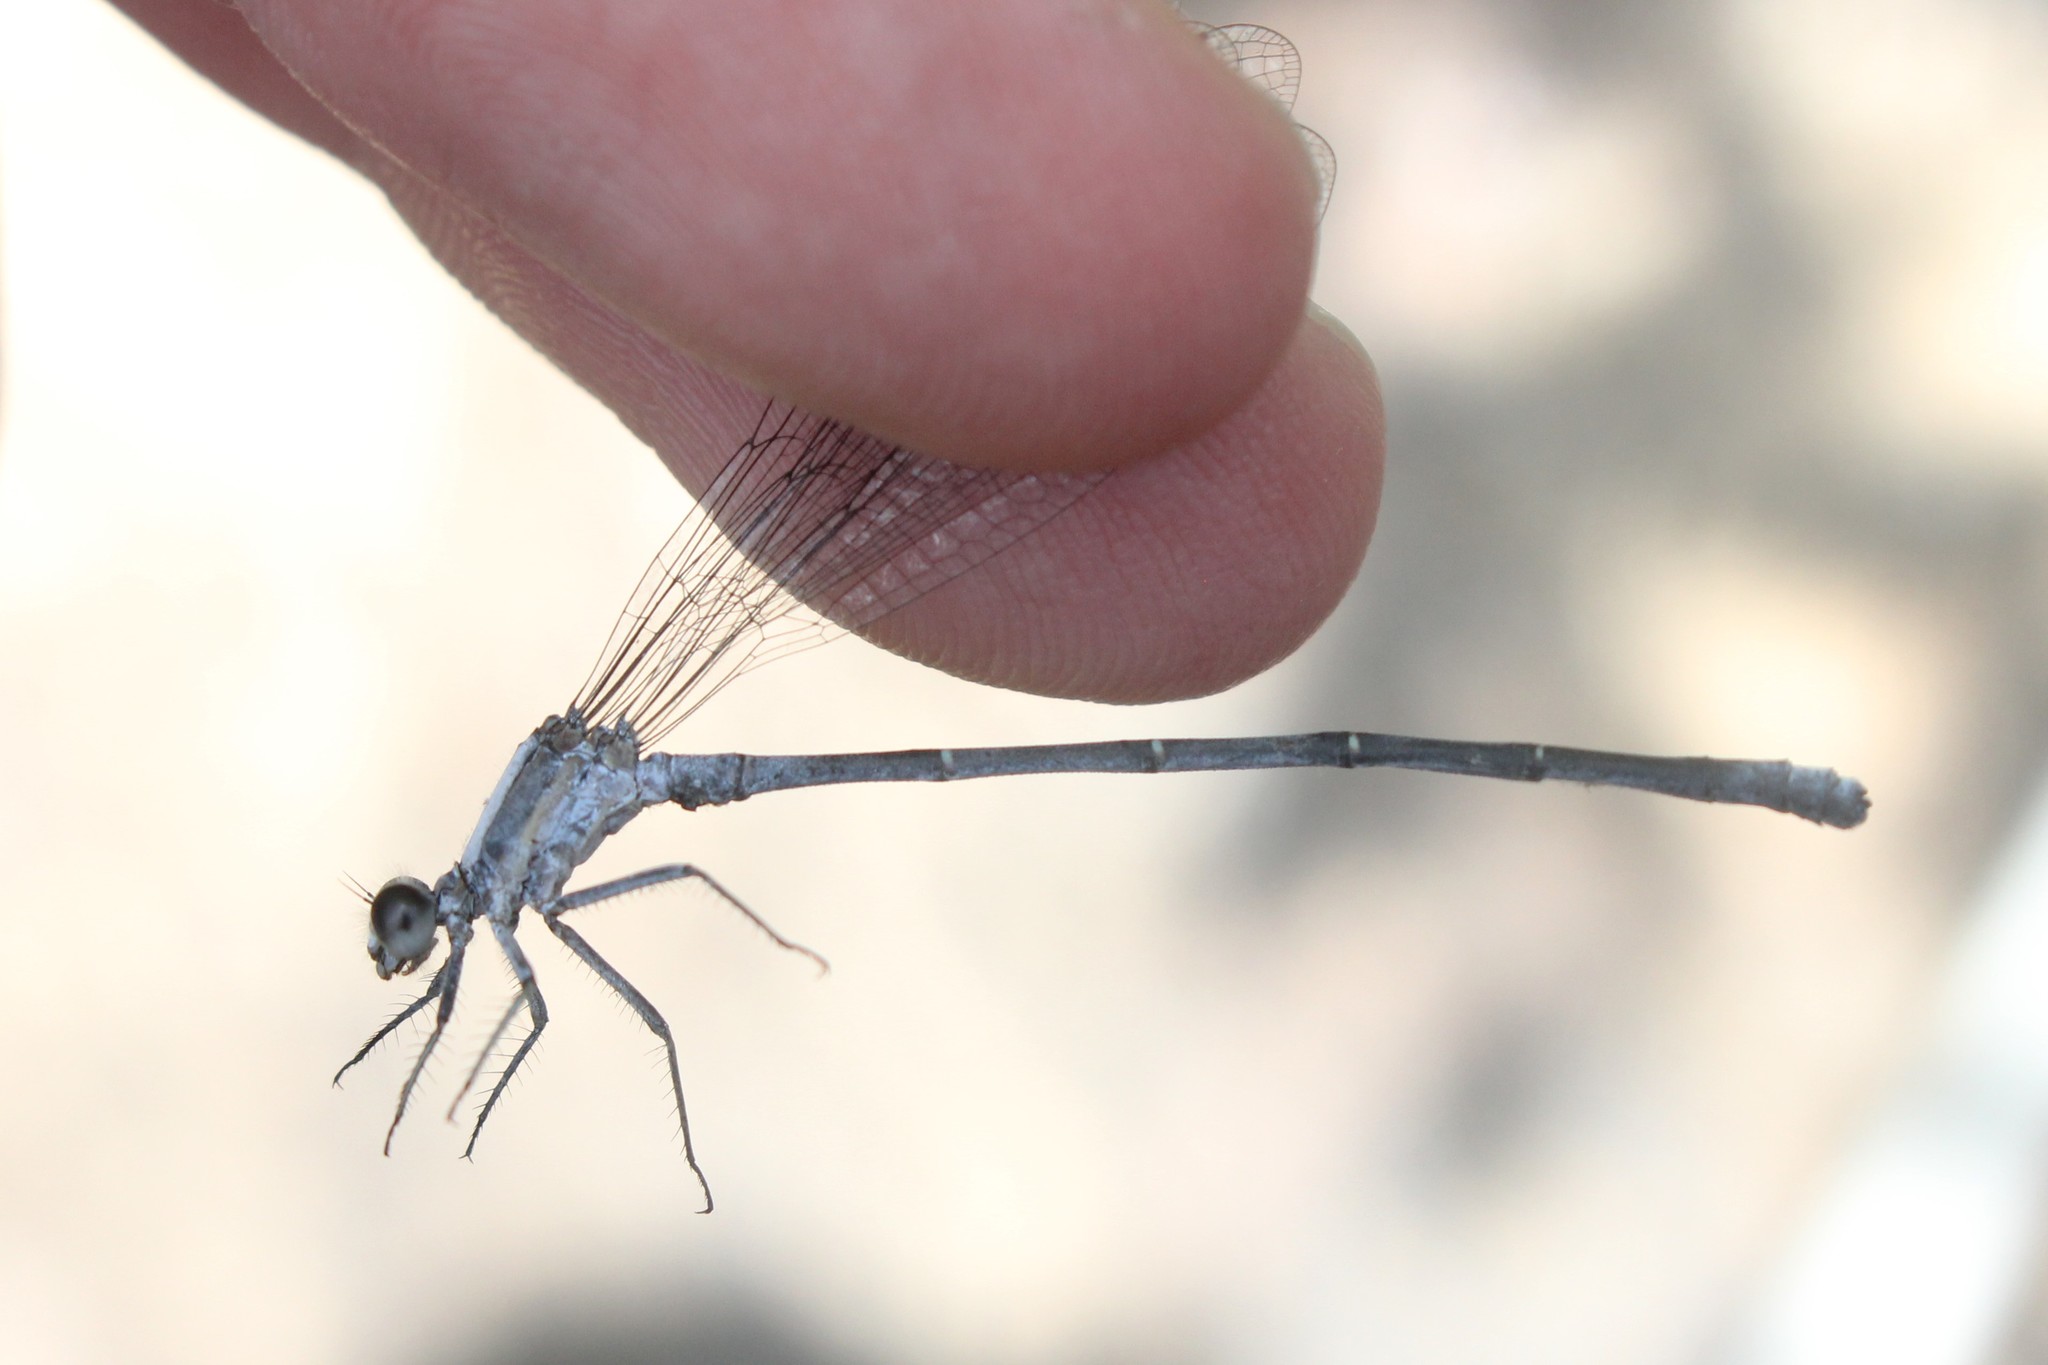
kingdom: Animalia
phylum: Arthropoda
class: Insecta
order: Odonata
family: Coenagrionidae
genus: Argia
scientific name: Argia moesta
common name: Powdered dancer
